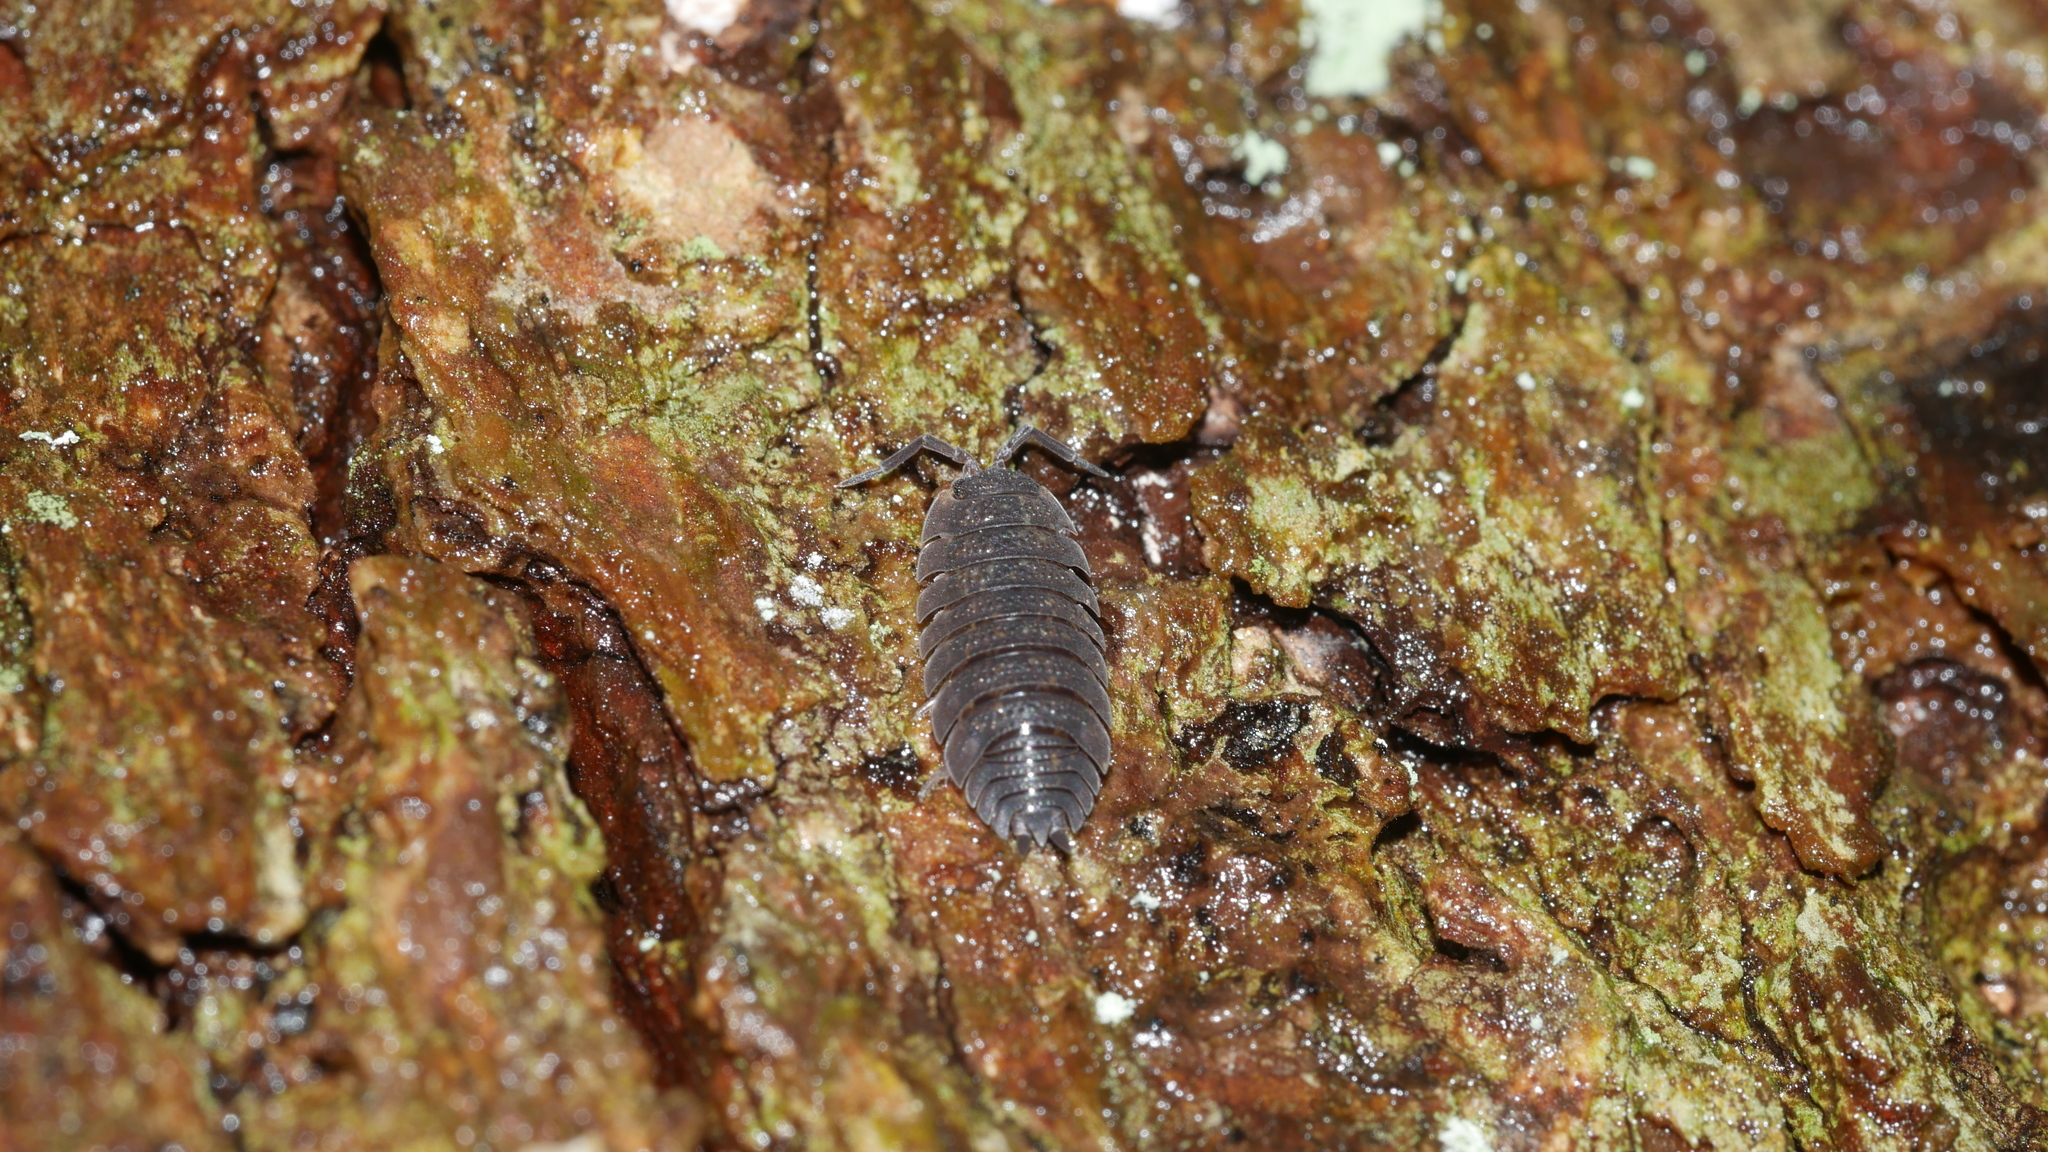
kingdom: Animalia
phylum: Arthropoda
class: Malacostraca
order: Isopoda
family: Porcellionidae
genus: Porcellio
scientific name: Porcellio scaber
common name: Common rough woodlouse
